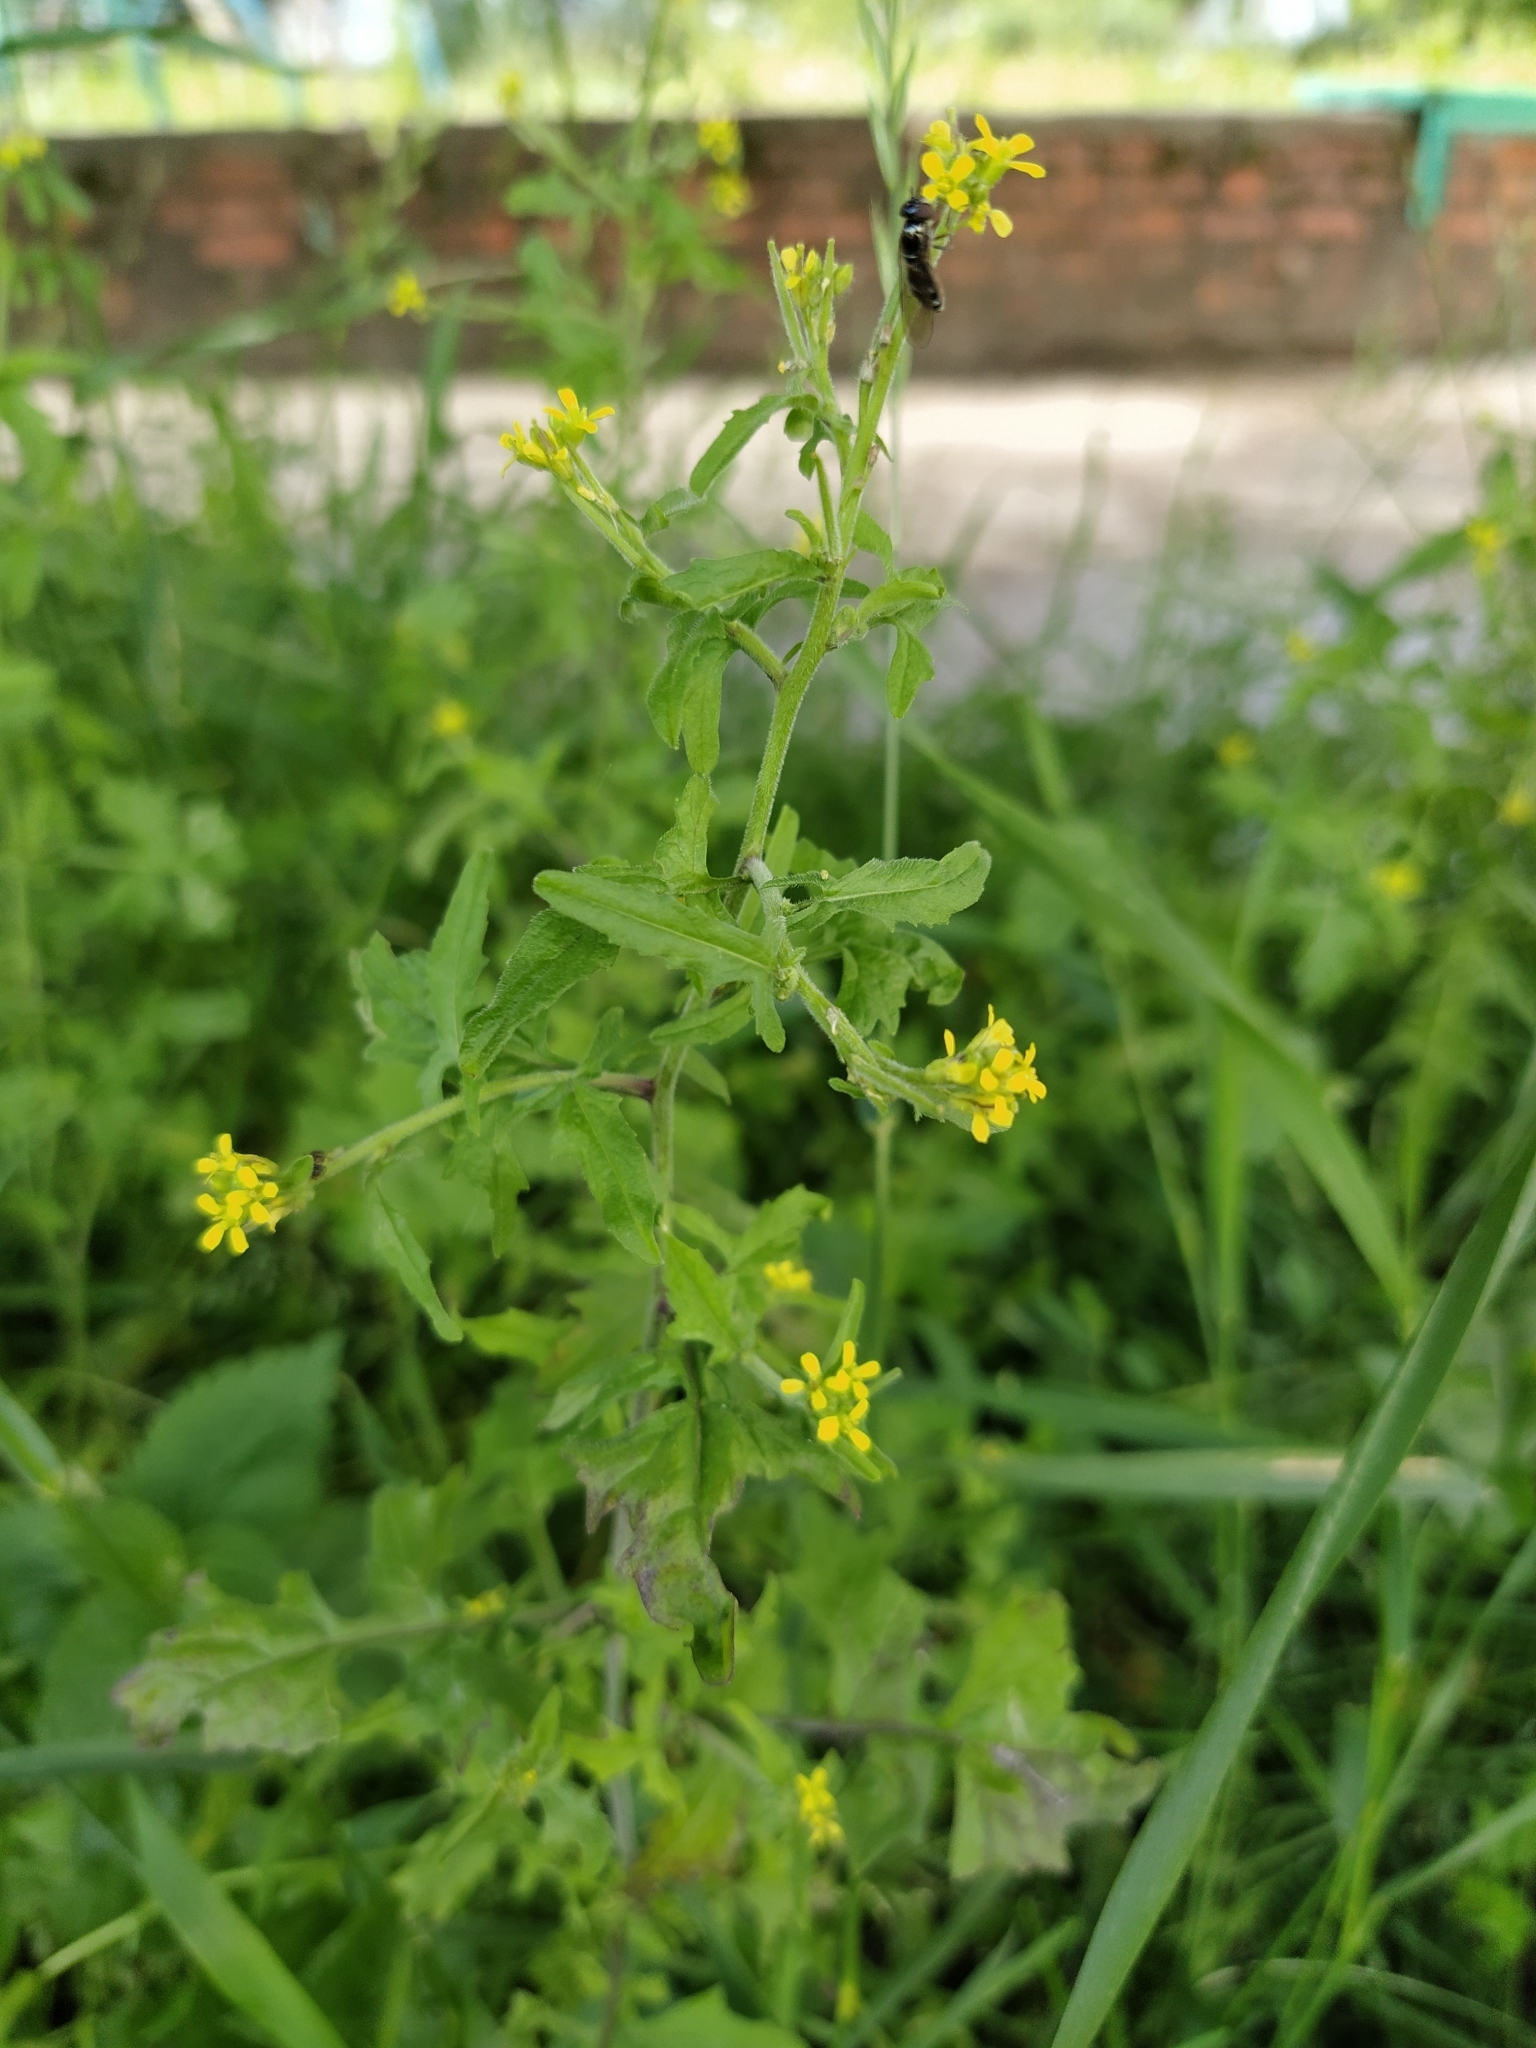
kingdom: Plantae
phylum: Tracheophyta
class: Magnoliopsida
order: Brassicales
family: Brassicaceae
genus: Sisymbrium
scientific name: Sisymbrium officinale
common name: Hedge mustard
